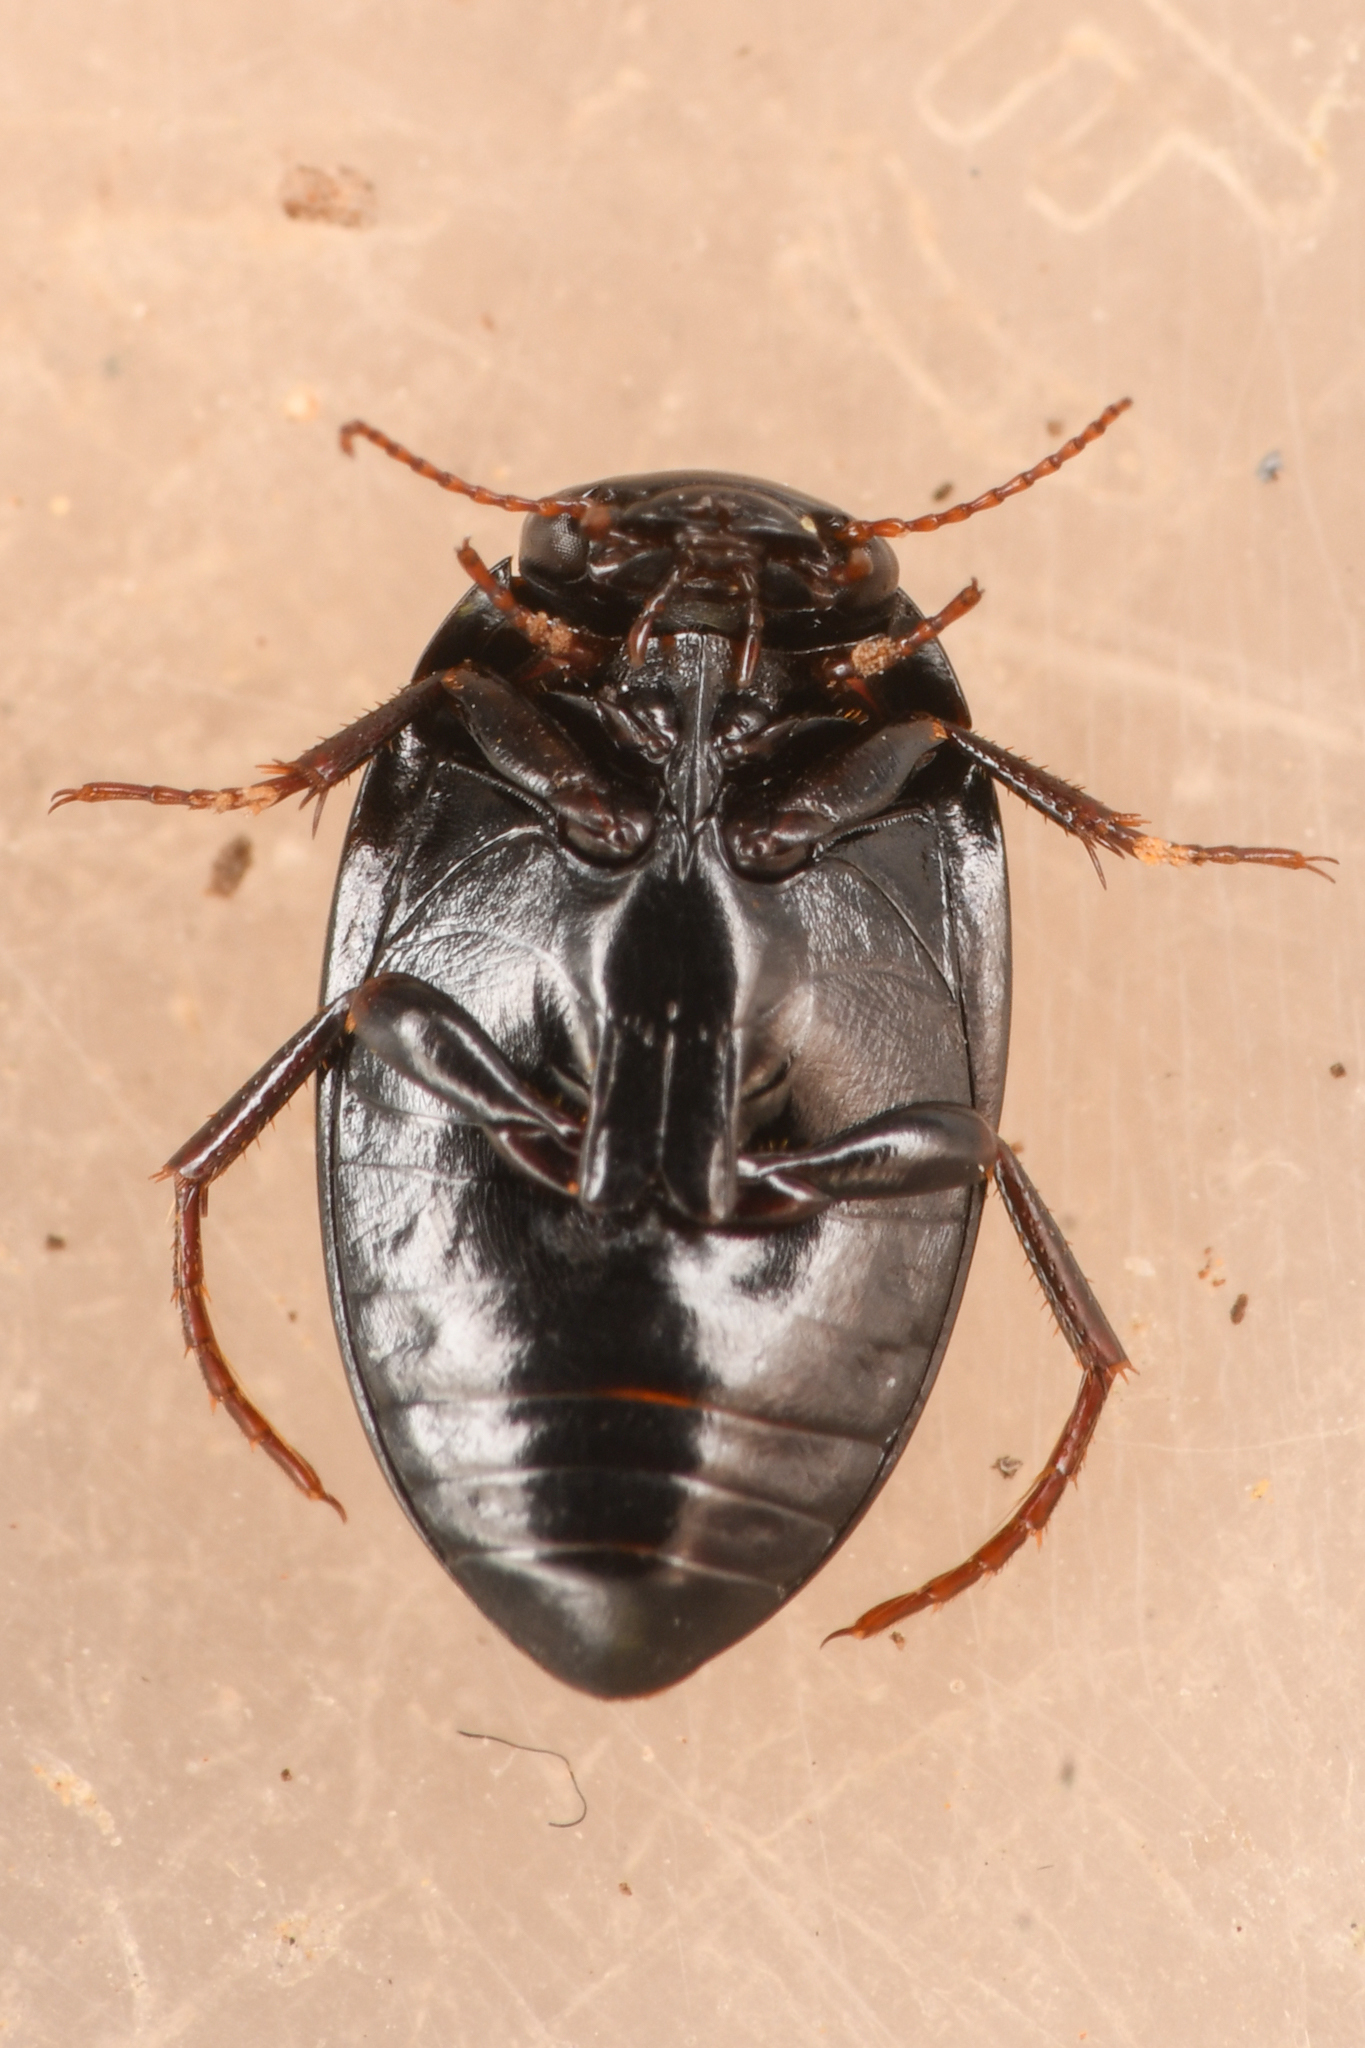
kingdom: Animalia
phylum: Arthropoda
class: Insecta
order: Coleoptera
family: Dytiscidae
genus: Agabinus
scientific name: Agabinus glabrellus
